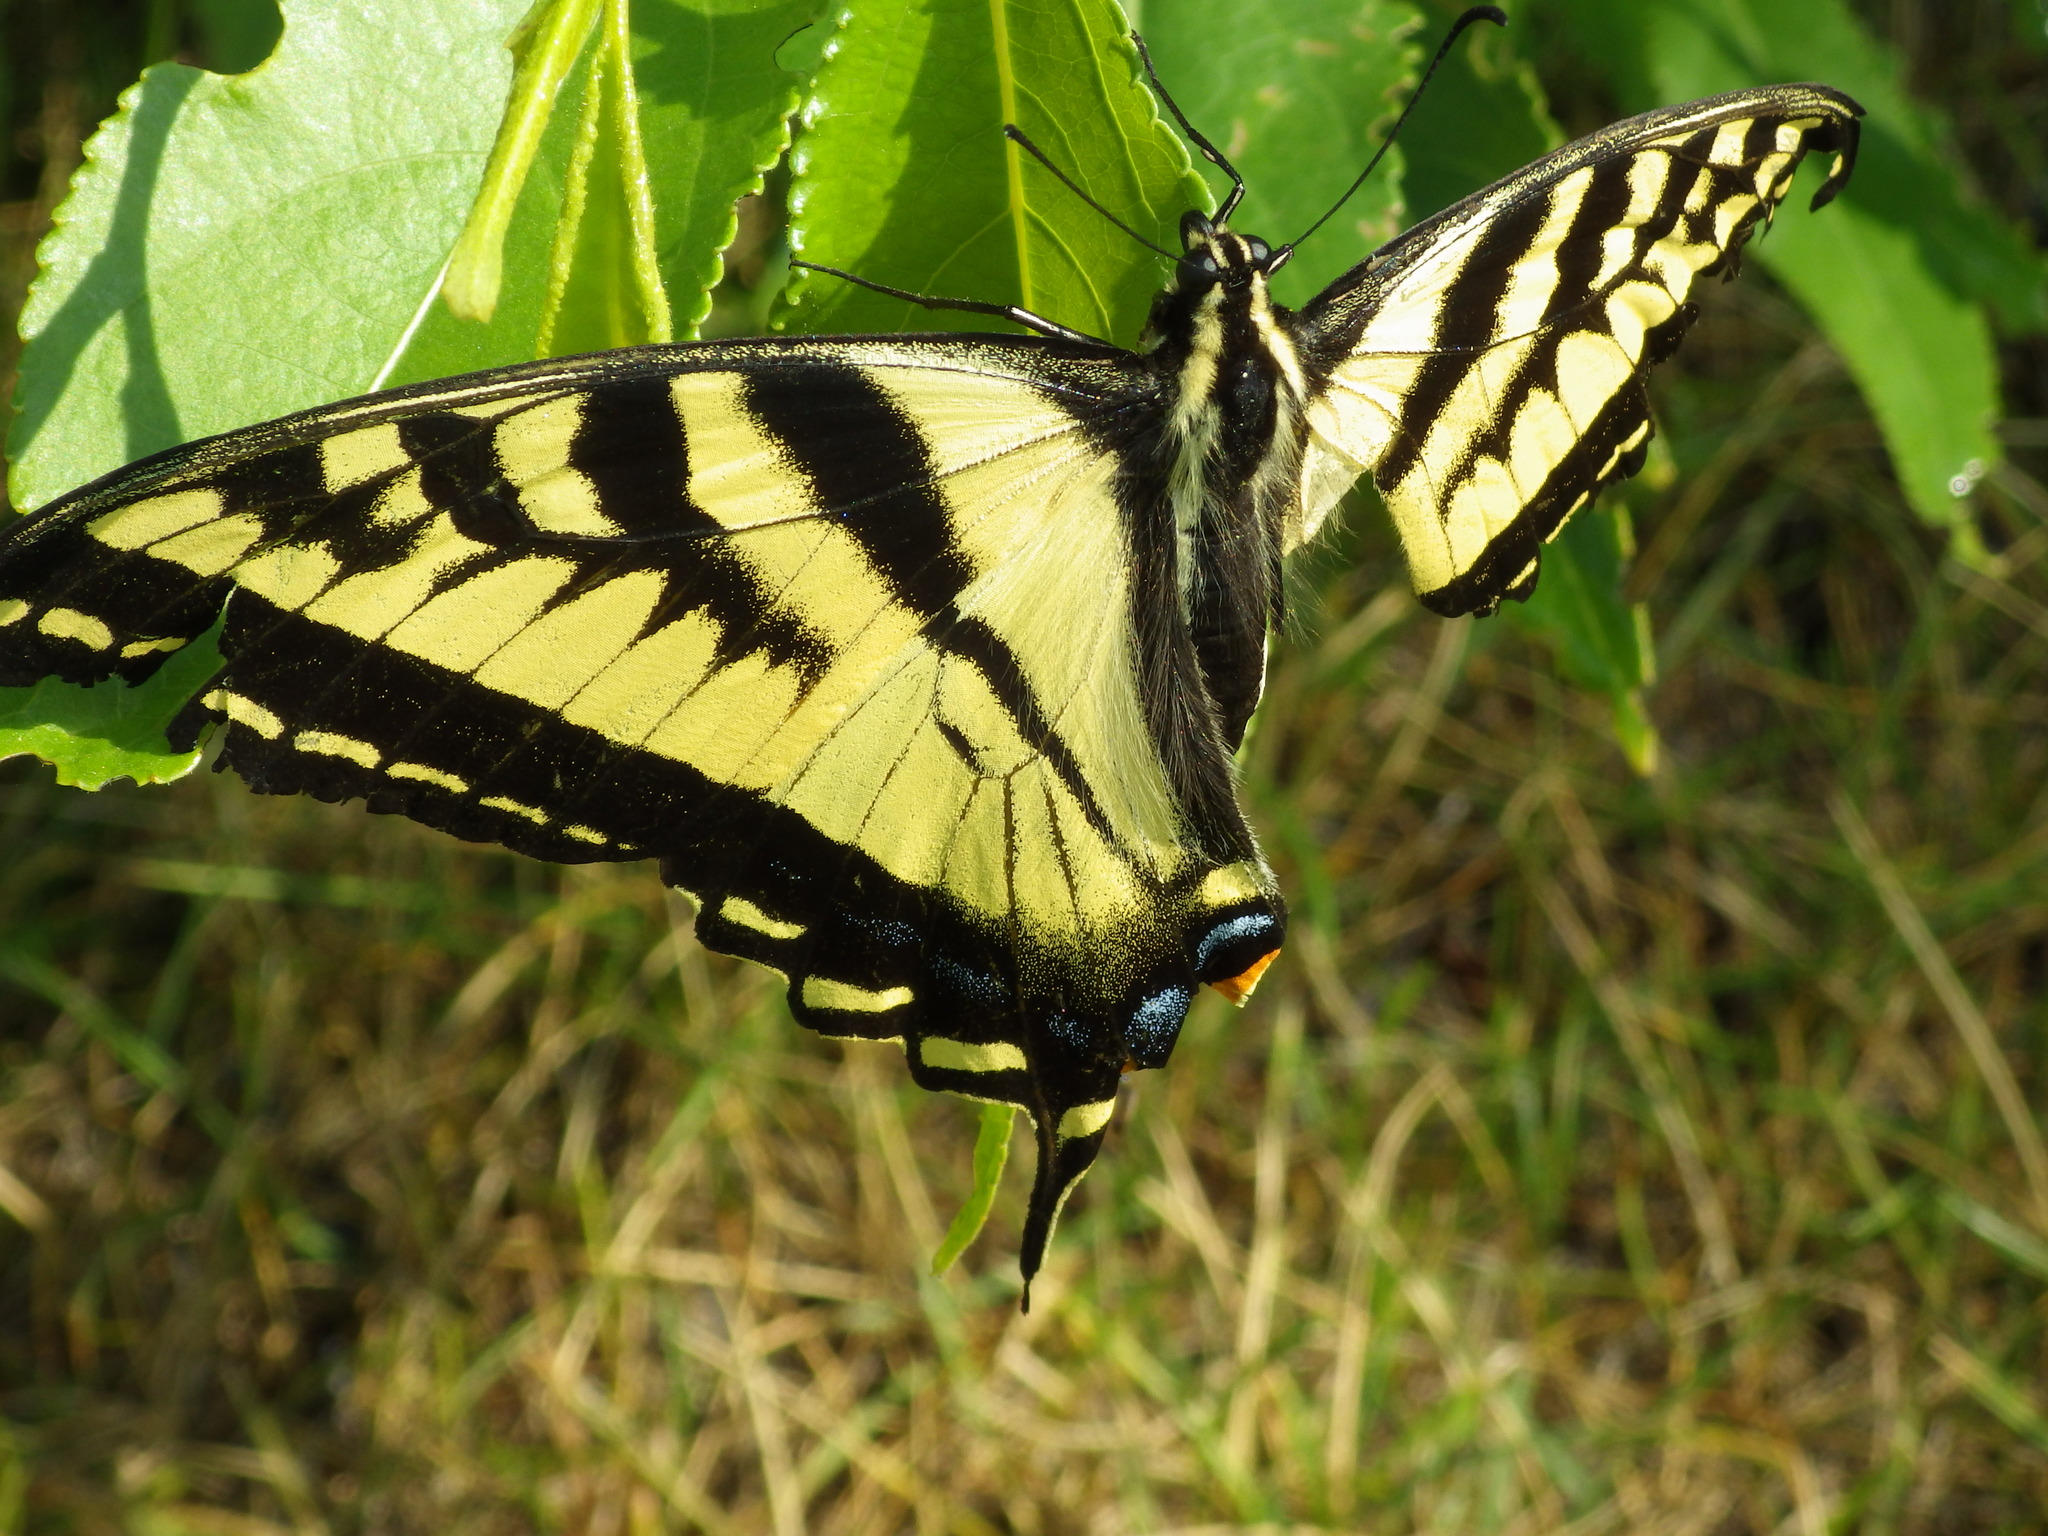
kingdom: Animalia
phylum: Arthropoda
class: Insecta
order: Lepidoptera
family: Papilionidae
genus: Papilio
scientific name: Papilio rutulus
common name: Western tiger swallowtail
